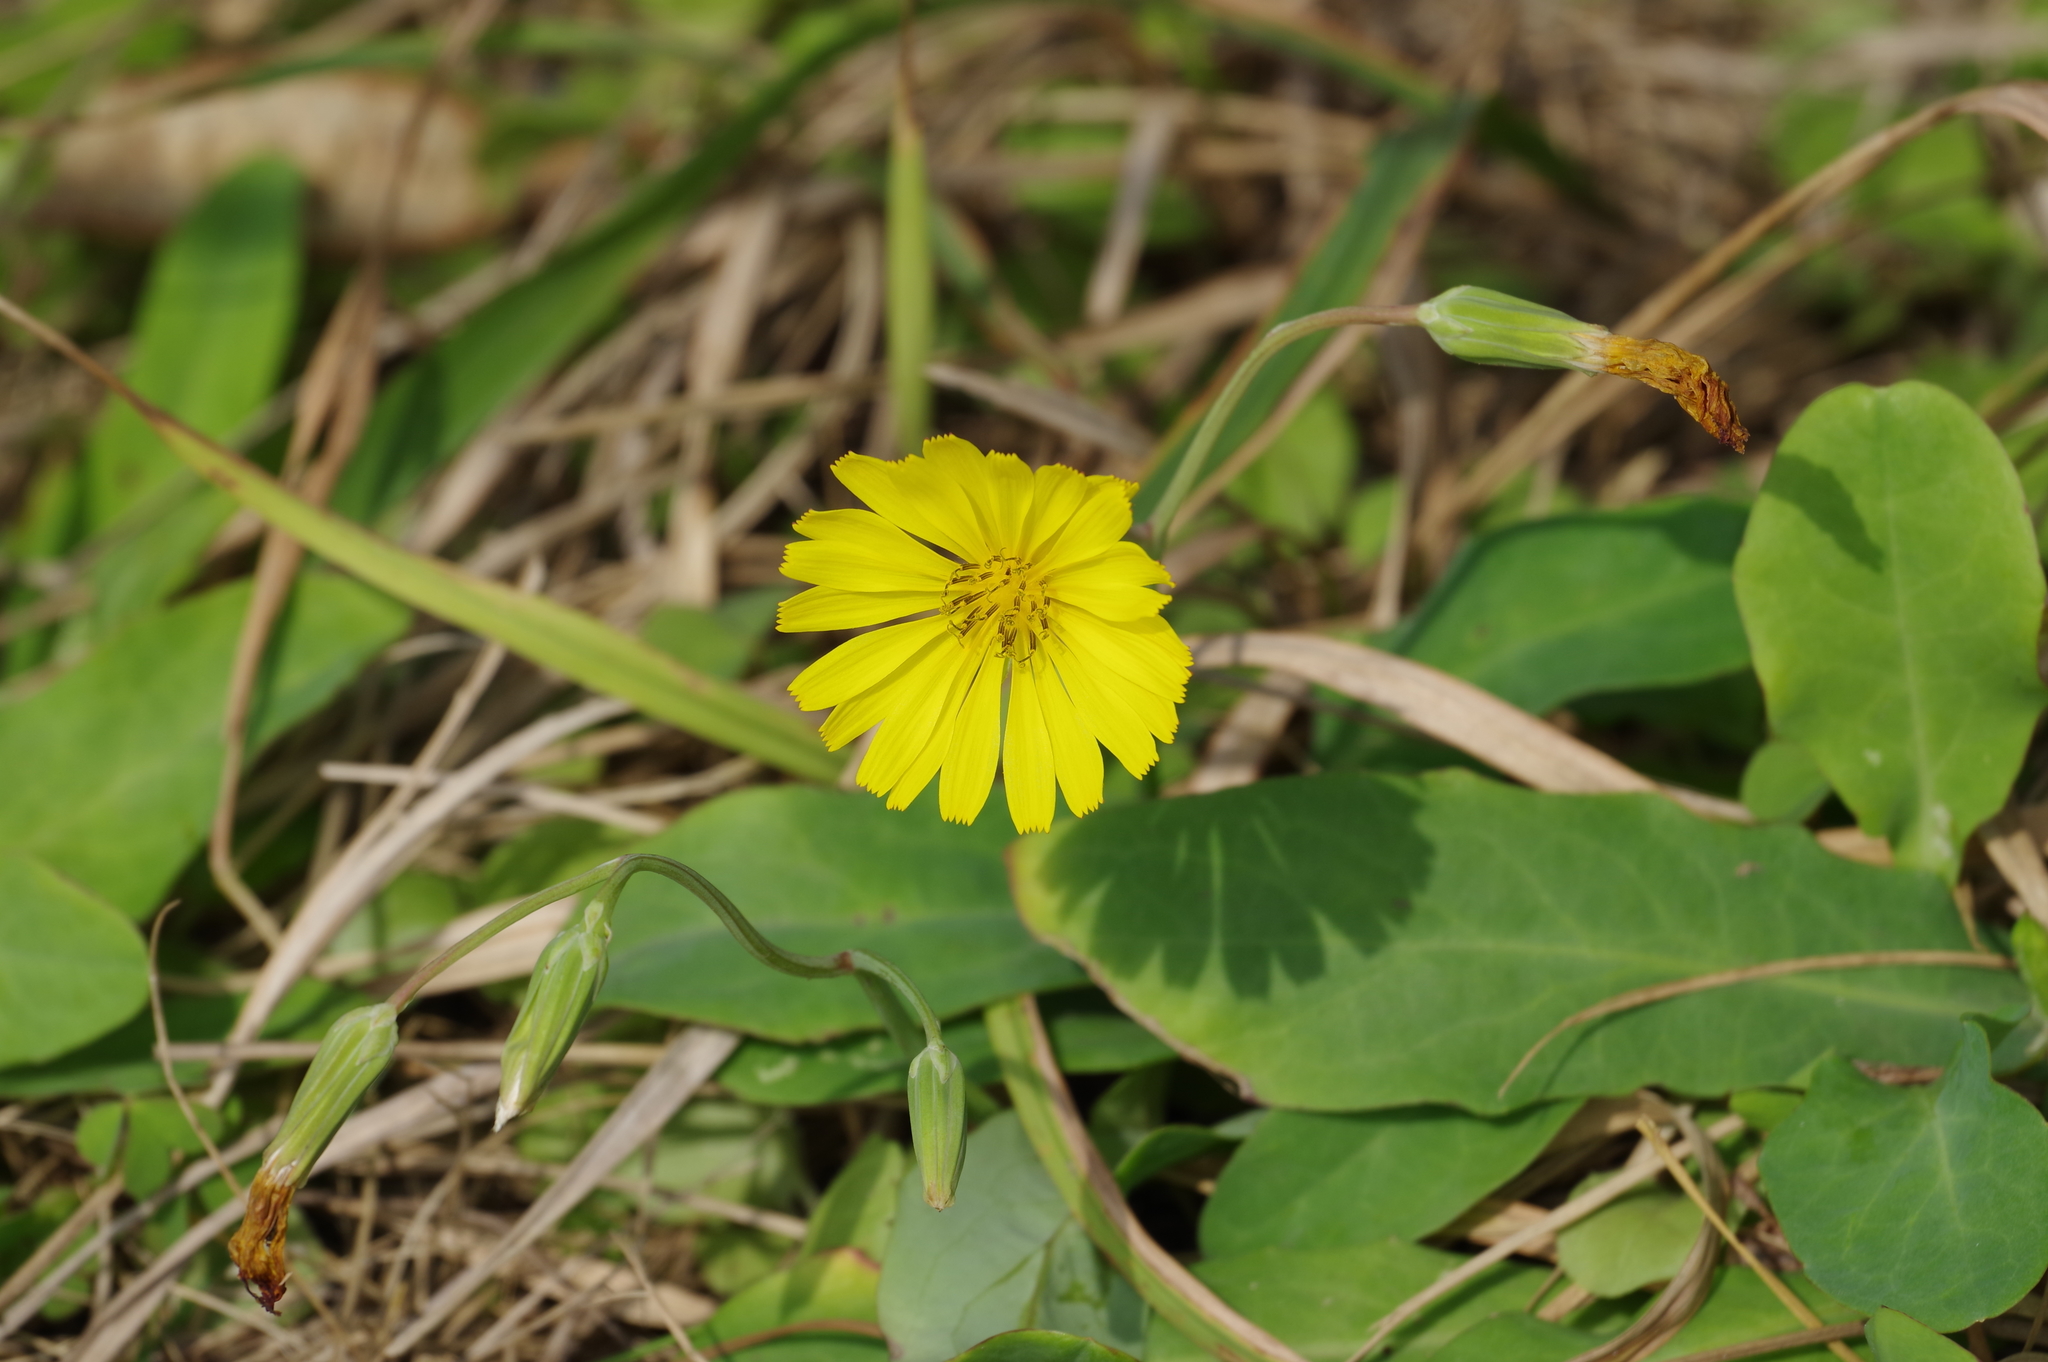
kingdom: Plantae
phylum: Tracheophyta
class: Magnoliopsida
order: Asterales
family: Asteraceae
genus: Ixeris
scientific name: Ixeris japonica
